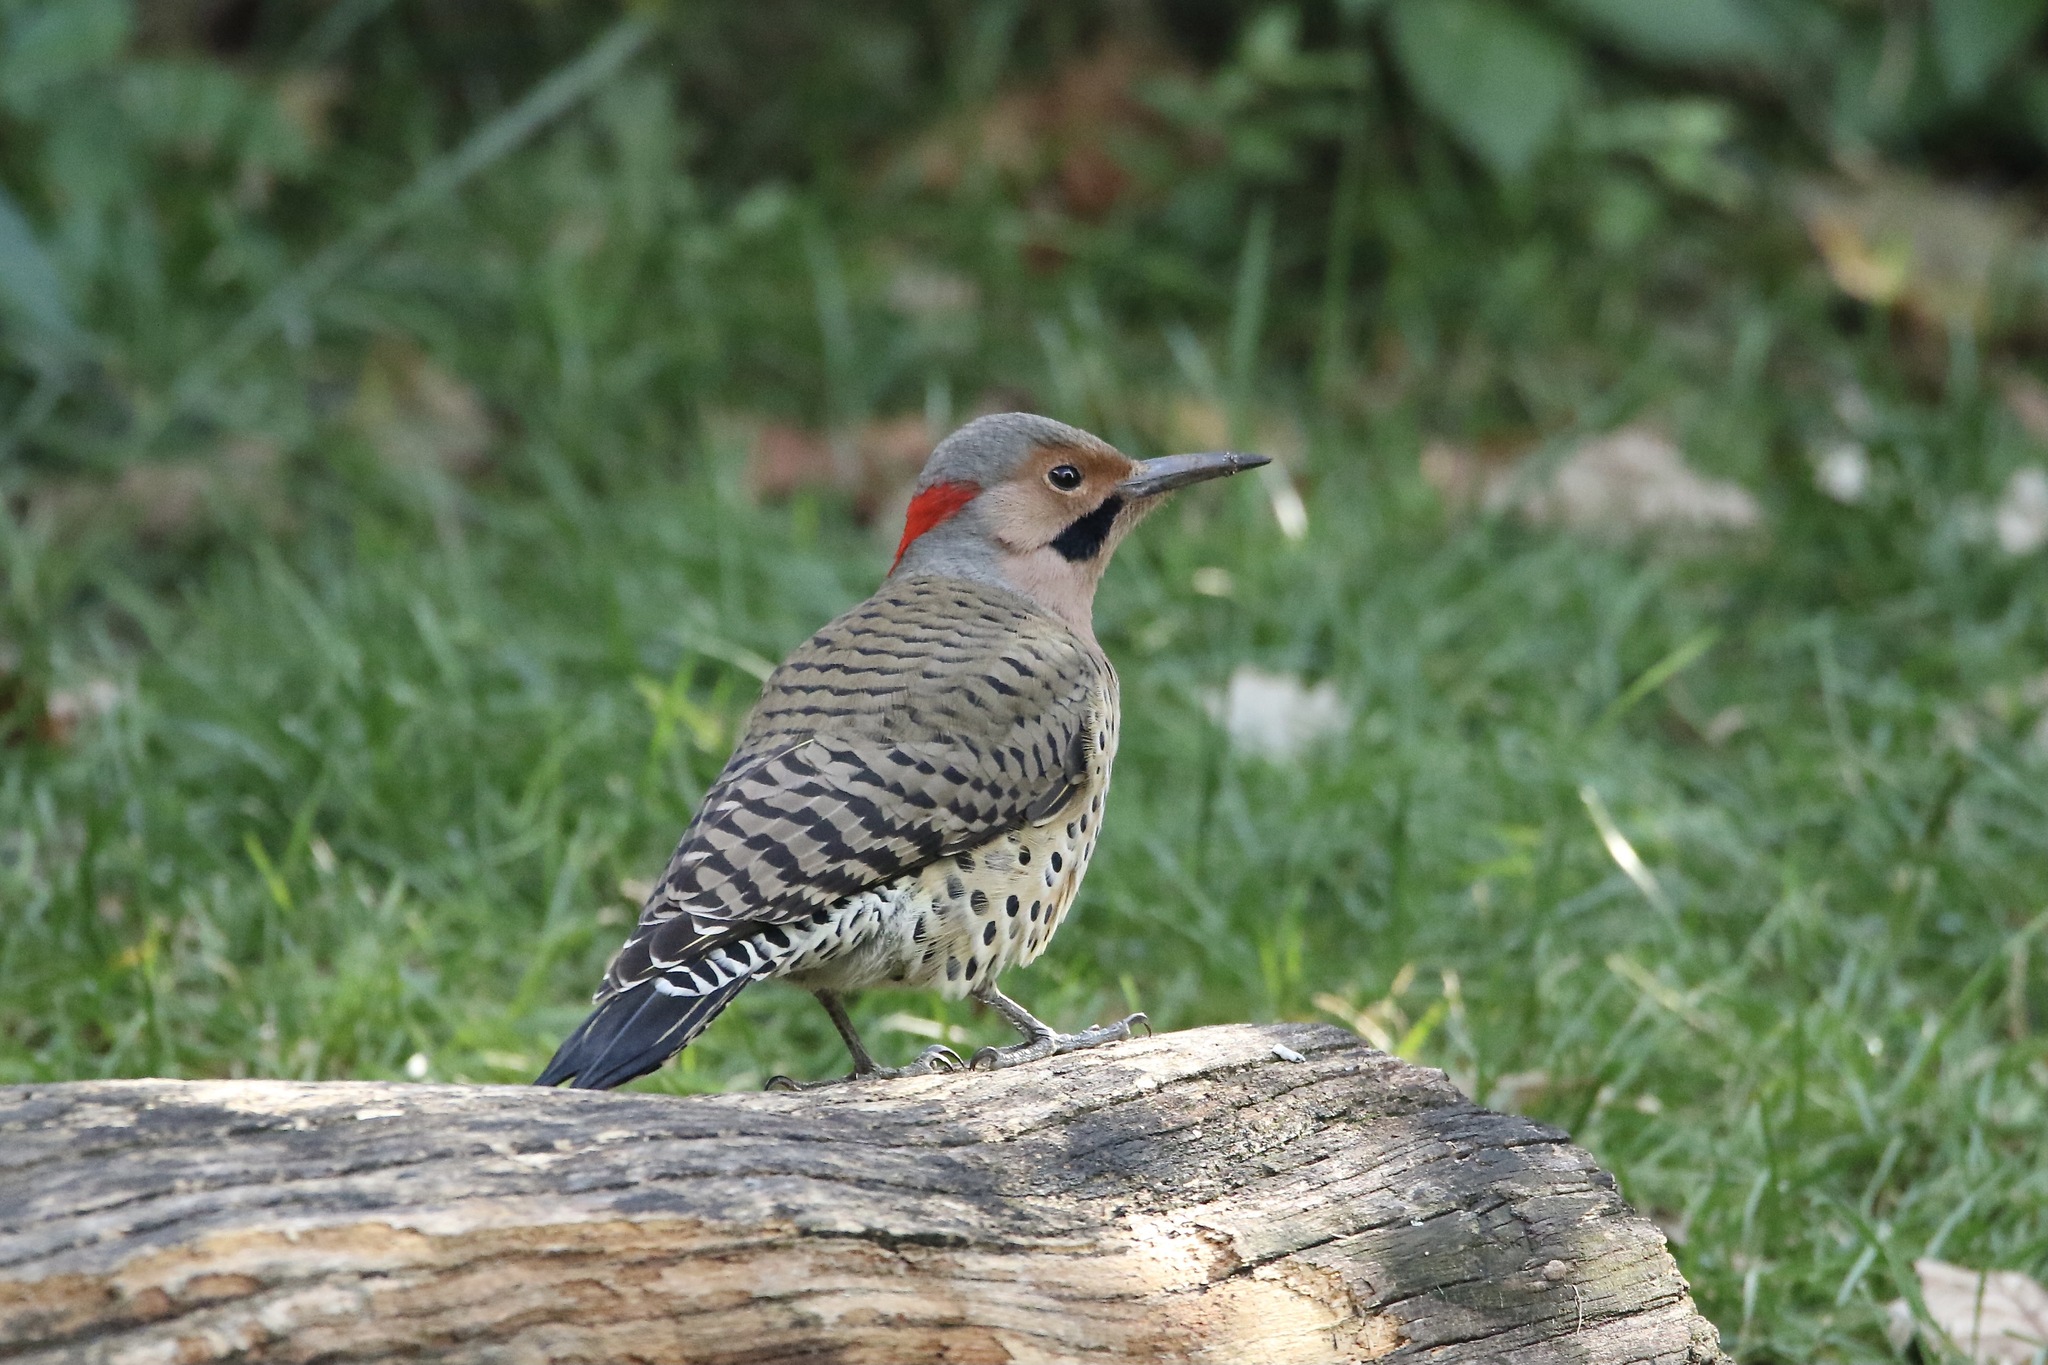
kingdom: Animalia
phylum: Chordata
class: Aves
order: Piciformes
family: Picidae
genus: Colaptes
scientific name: Colaptes auratus
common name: Northern flicker
